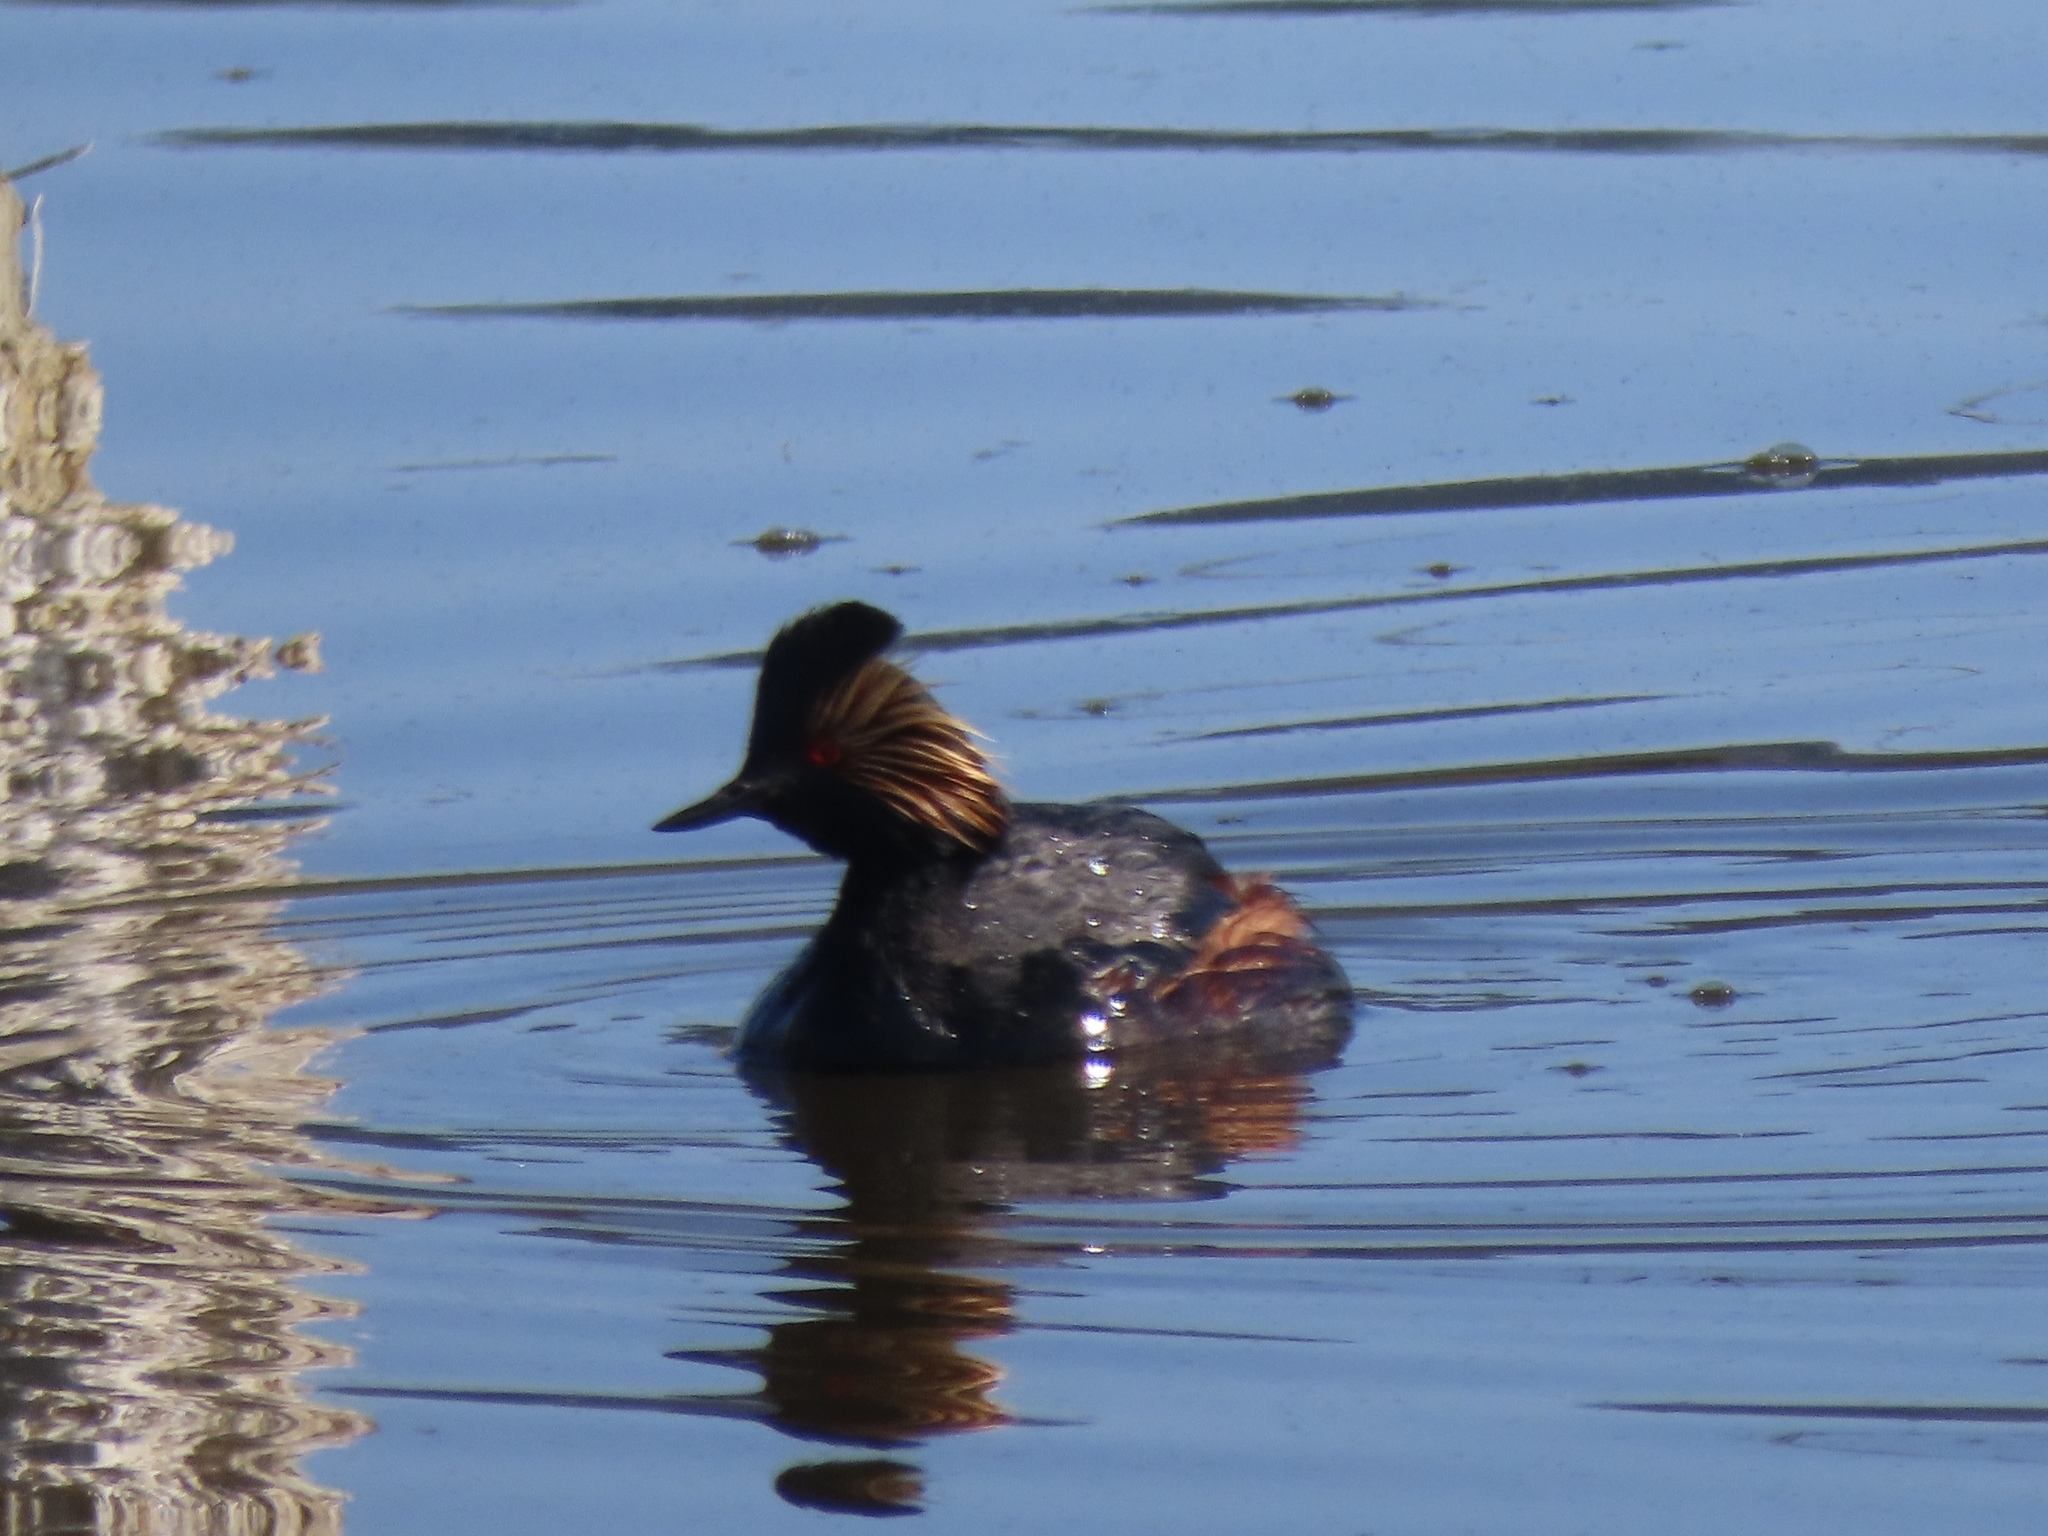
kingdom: Animalia
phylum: Chordata
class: Aves
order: Podicipediformes
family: Podicipedidae
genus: Podiceps
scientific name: Podiceps nigricollis
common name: Black-necked grebe
